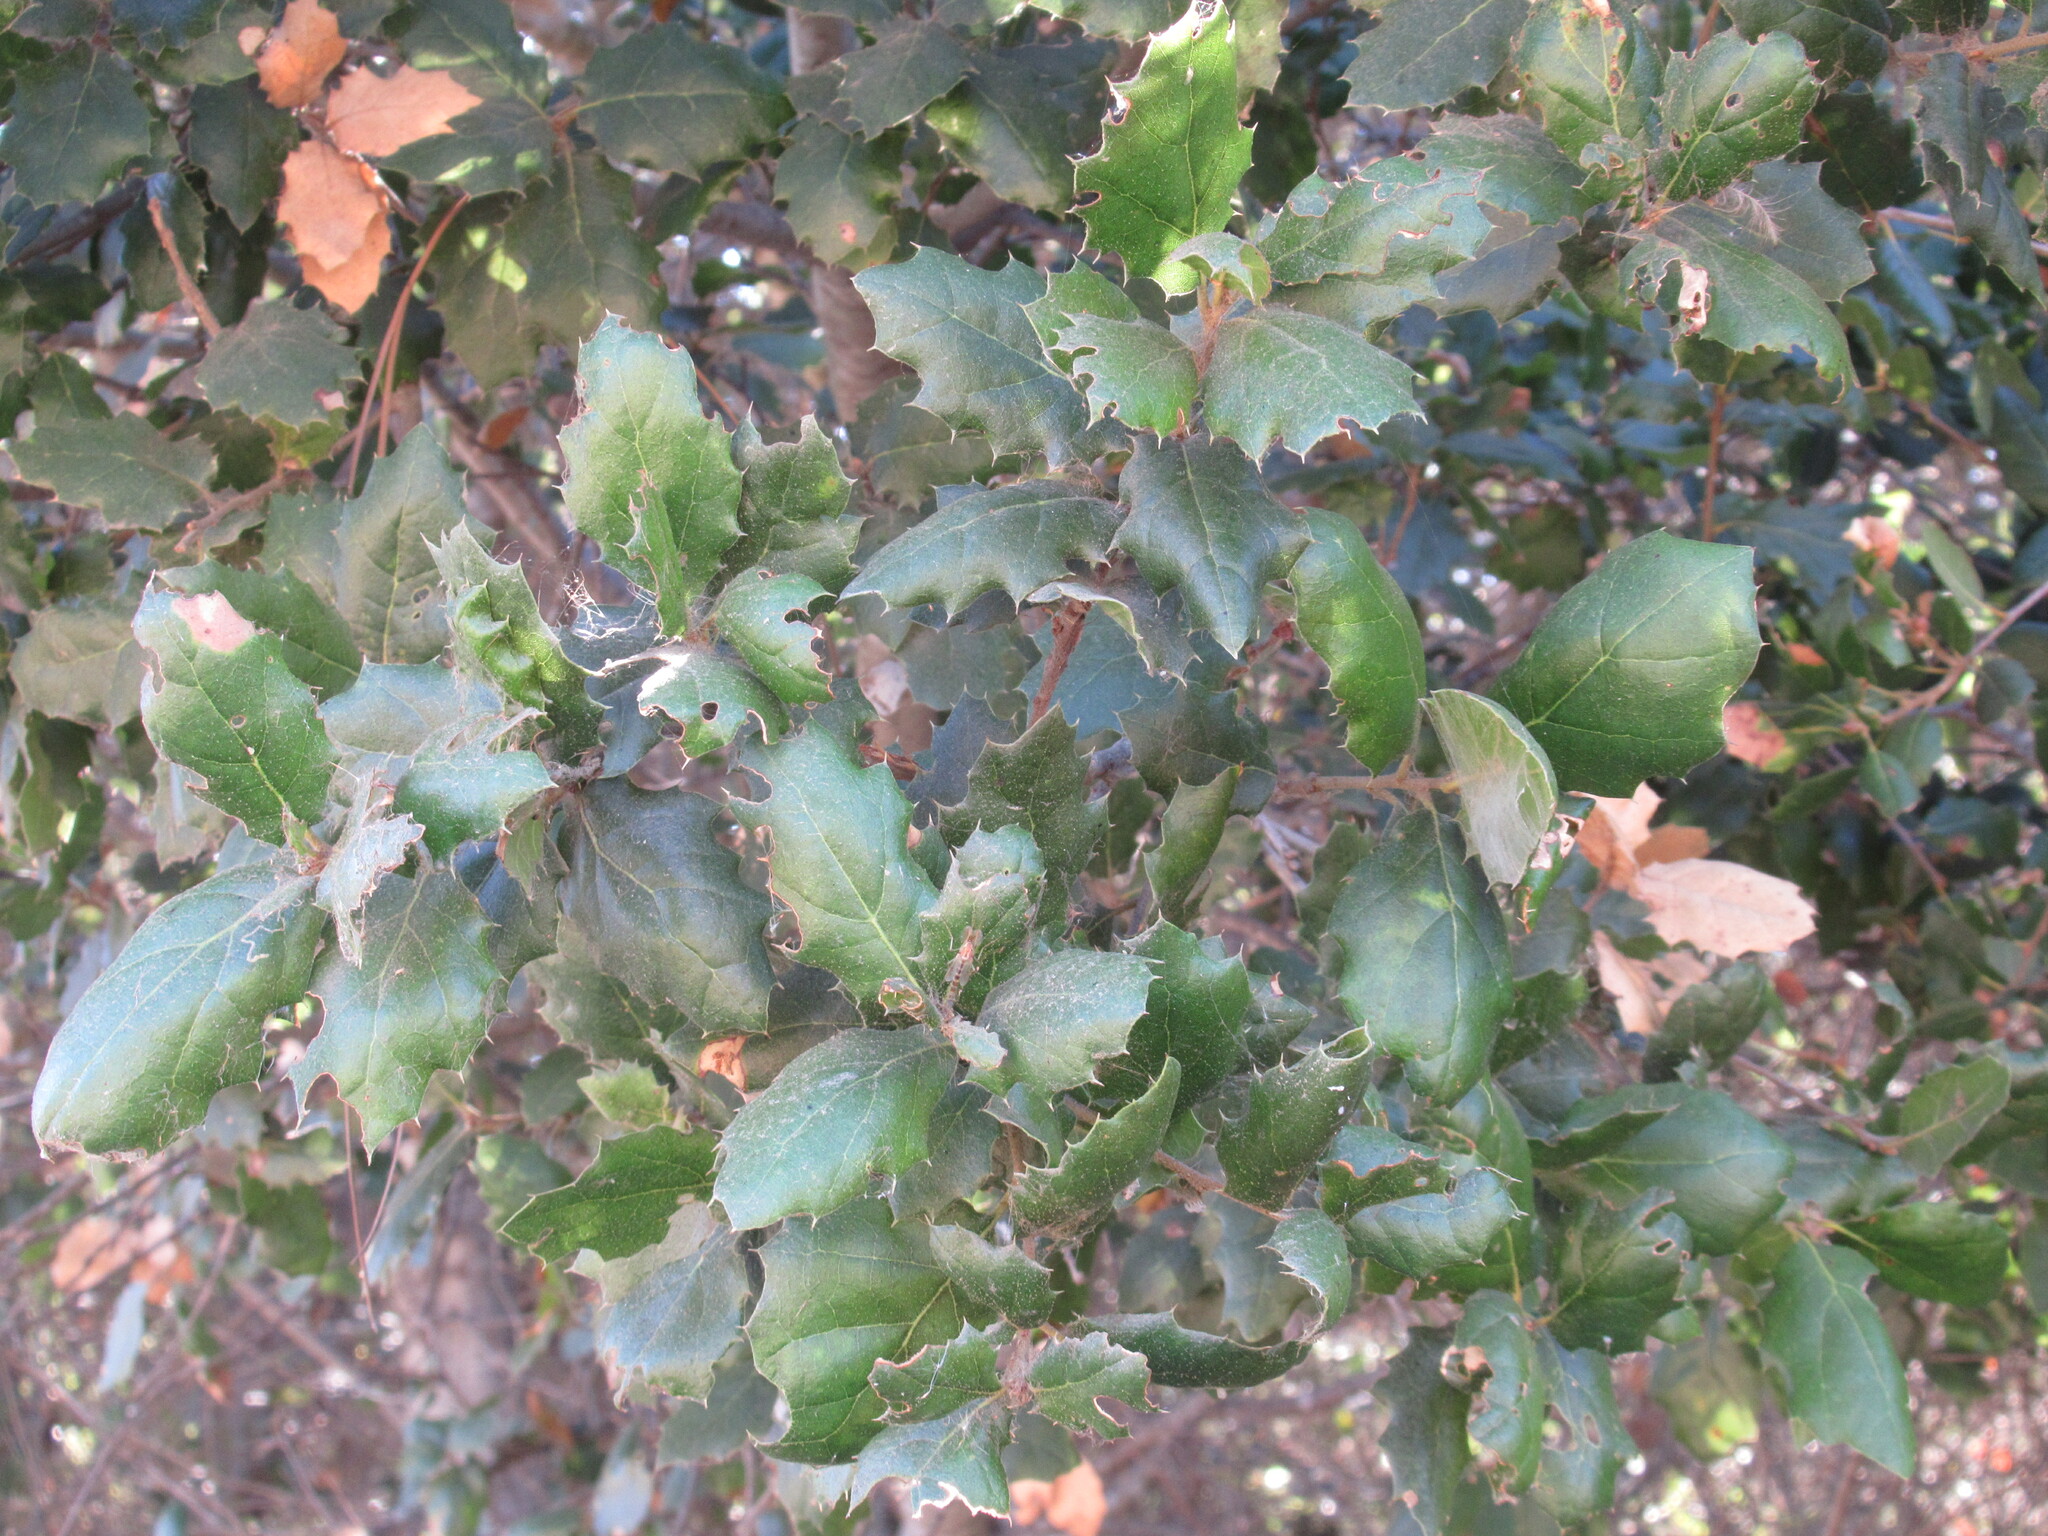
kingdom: Plantae
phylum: Tracheophyta
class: Magnoliopsida
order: Fagales
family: Fagaceae
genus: Quercus
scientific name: Quercus agrifolia
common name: California live oak
